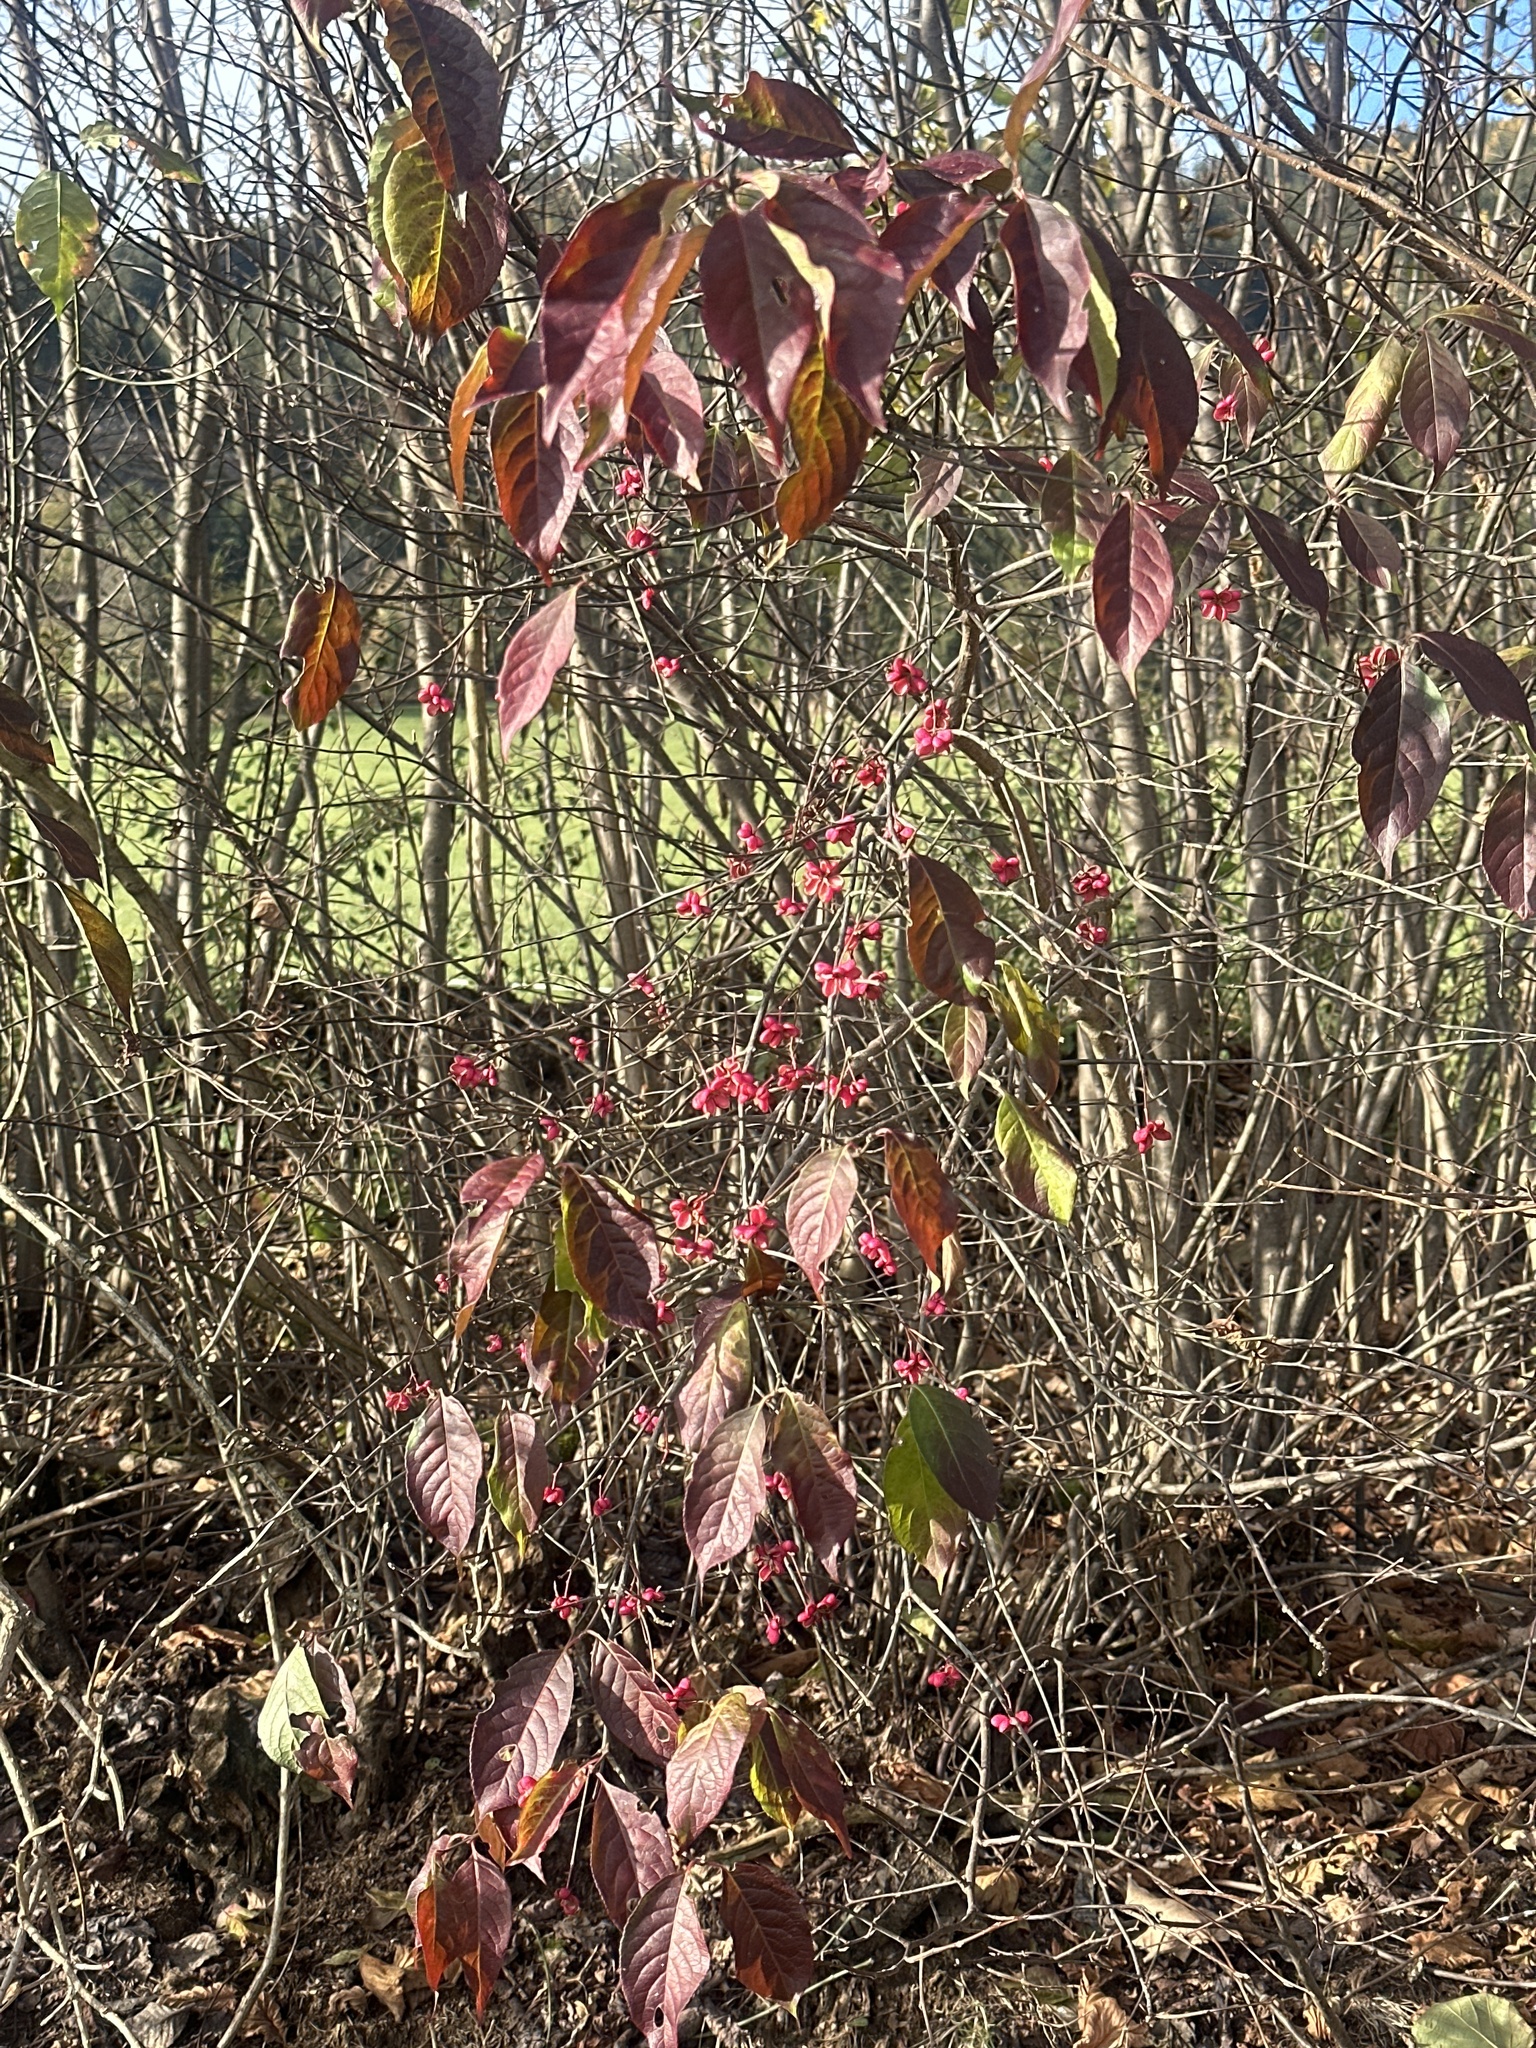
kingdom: Plantae
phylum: Tracheophyta
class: Magnoliopsida
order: Celastrales
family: Celastraceae
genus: Euonymus
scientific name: Euonymus europaeus
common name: Spindle
